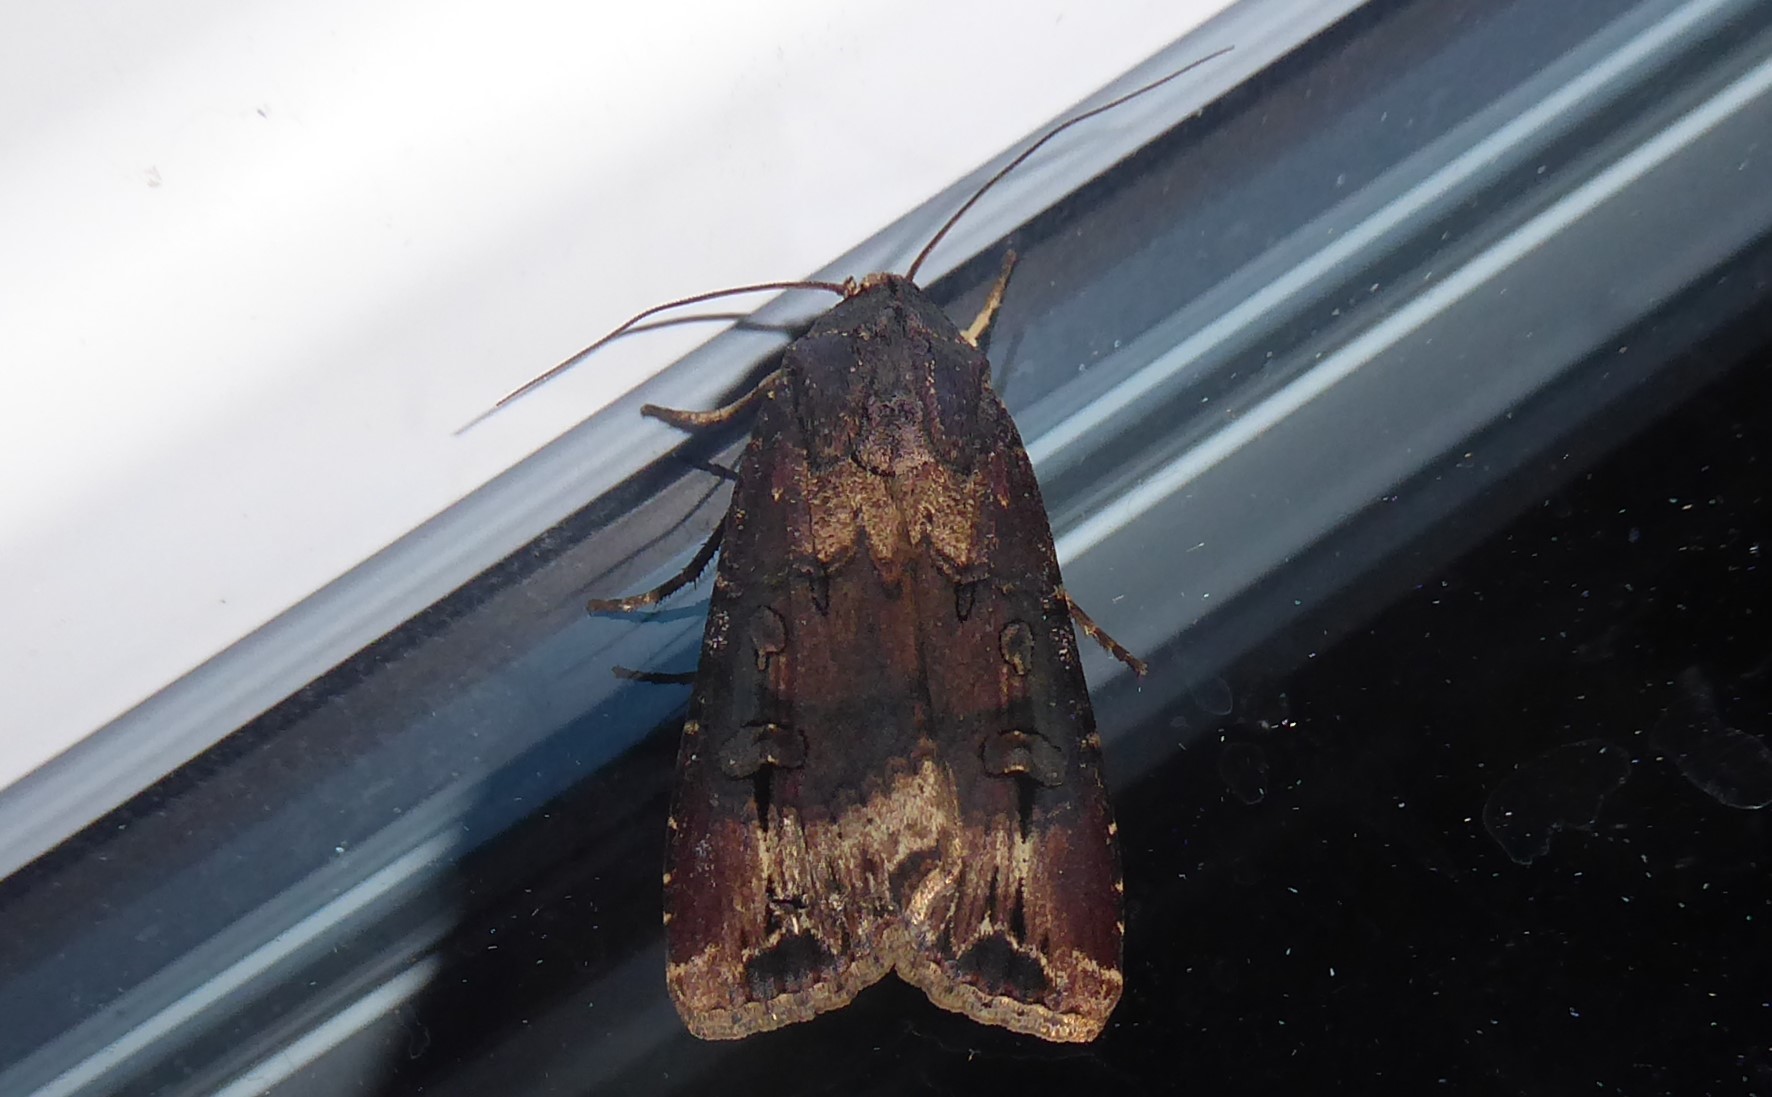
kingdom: Animalia
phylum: Arthropoda
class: Insecta
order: Lepidoptera
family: Noctuidae
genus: Agrotis
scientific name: Agrotis ipsilon
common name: Dark sword-grass
